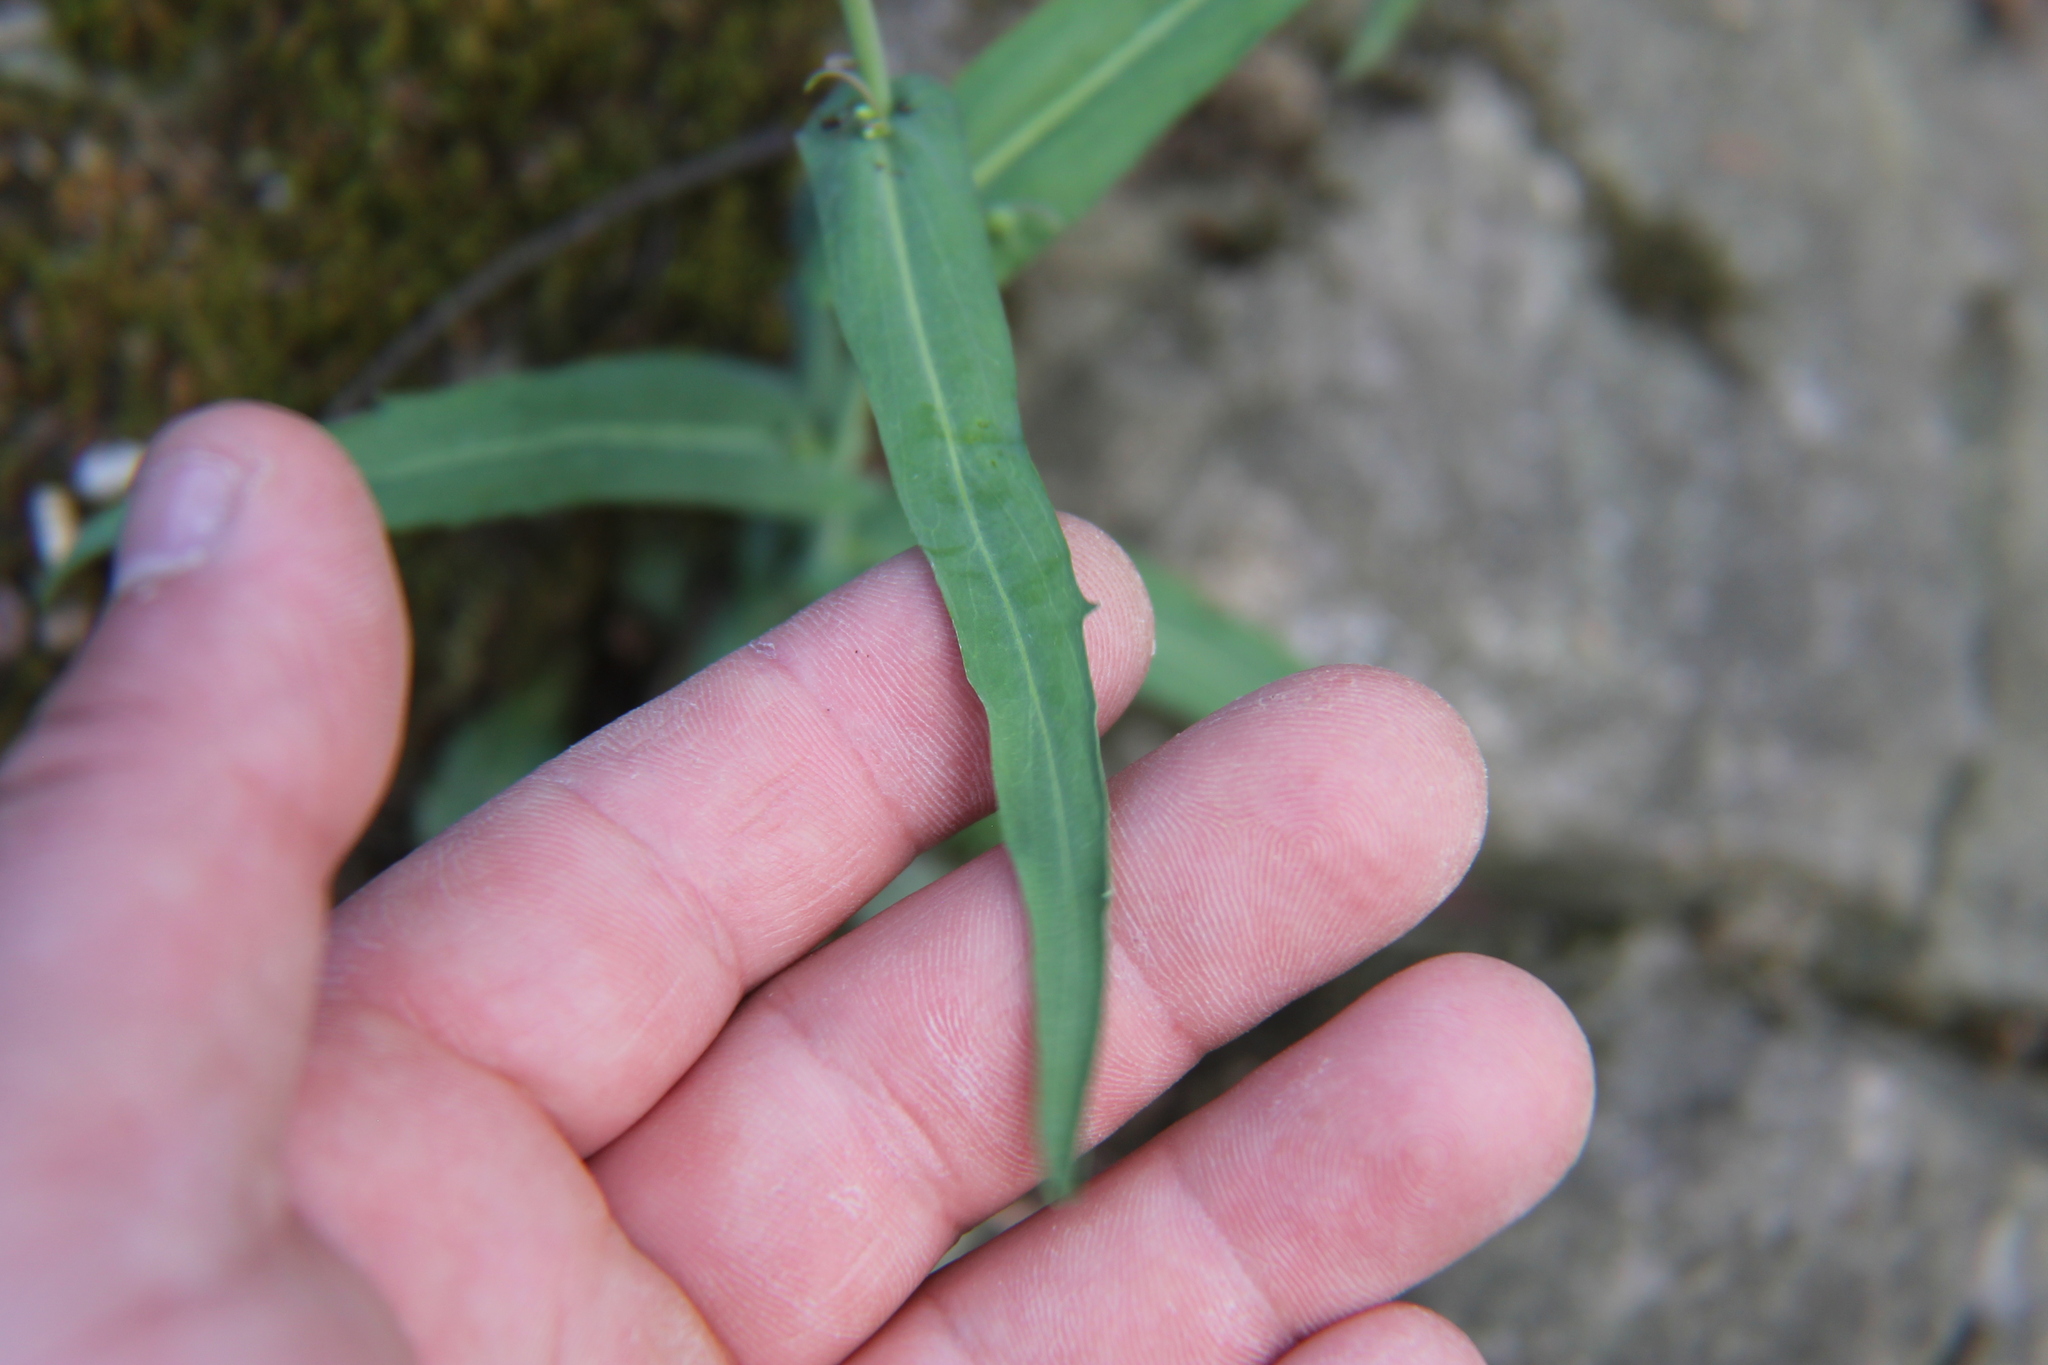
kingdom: Plantae
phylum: Tracheophyta
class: Magnoliopsida
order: Brassicales
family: Brassicaceae
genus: Borodinia
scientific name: Borodinia laevigata
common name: Smooth rockcress
